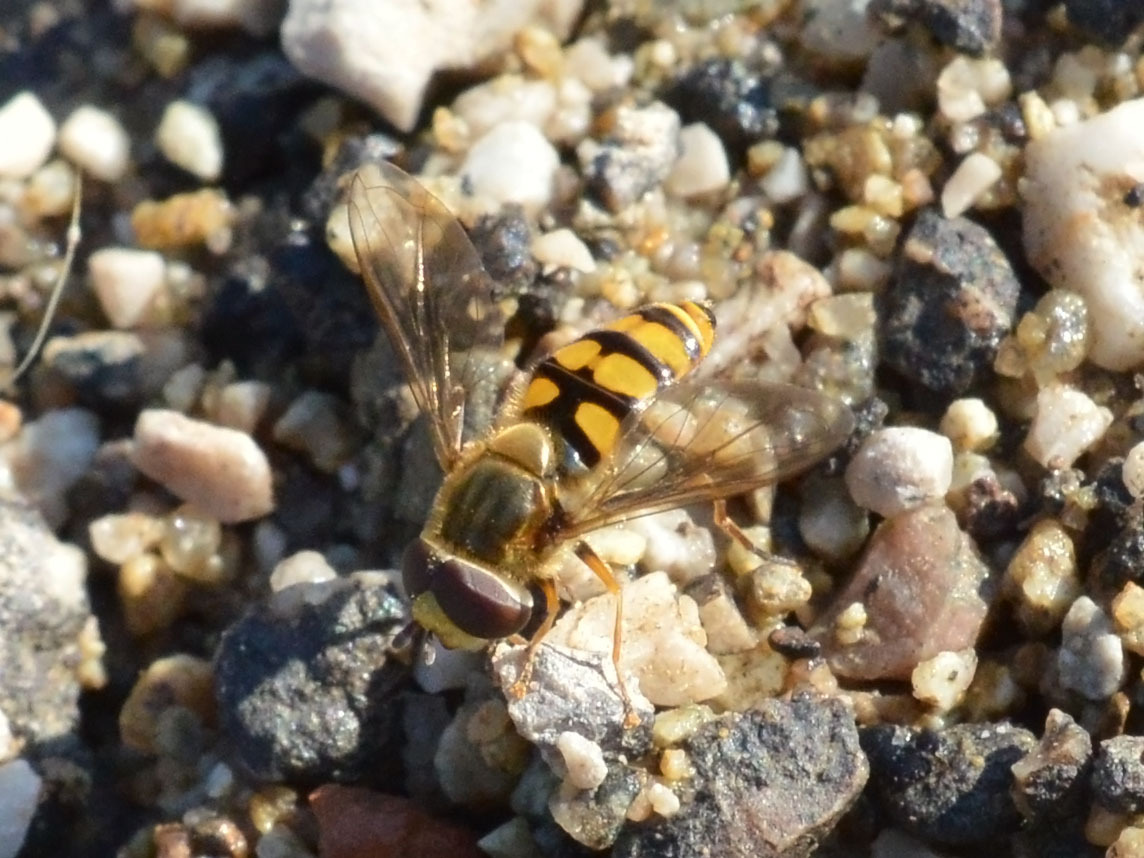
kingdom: Animalia
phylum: Arthropoda
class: Insecta
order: Diptera
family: Syrphidae
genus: Eupeodes
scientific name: Eupeodes corollae
